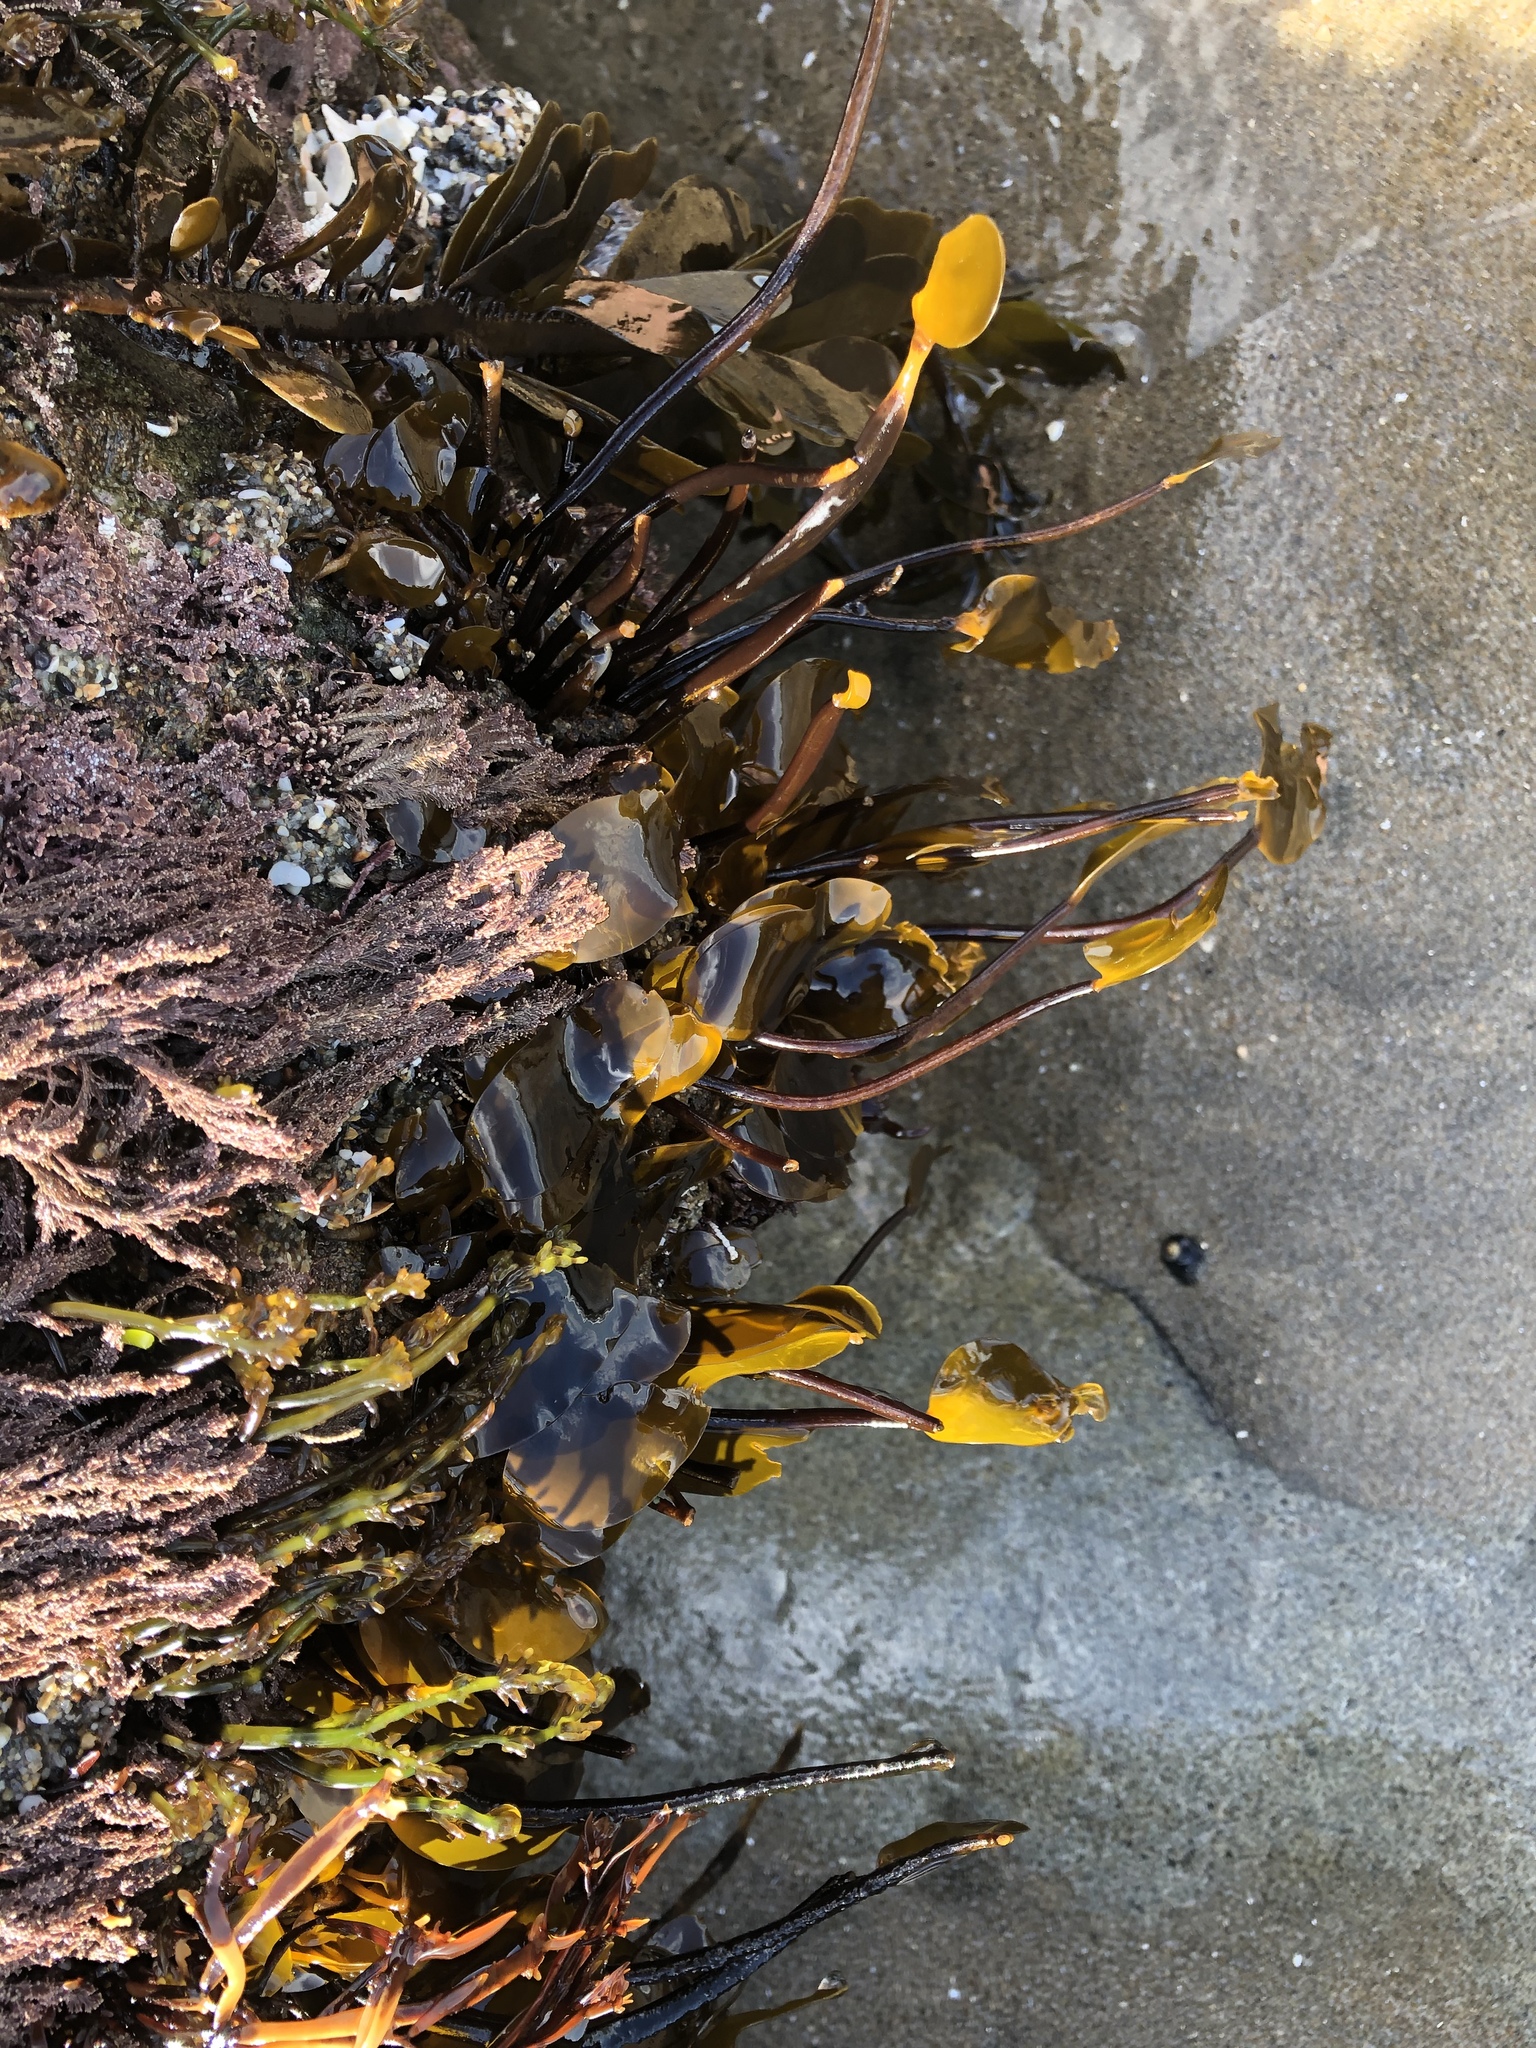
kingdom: Chromista
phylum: Ochrophyta
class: Phaeophyceae
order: Laminariales
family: Lessoniaceae
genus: Egregia
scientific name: Egregia menziesii
